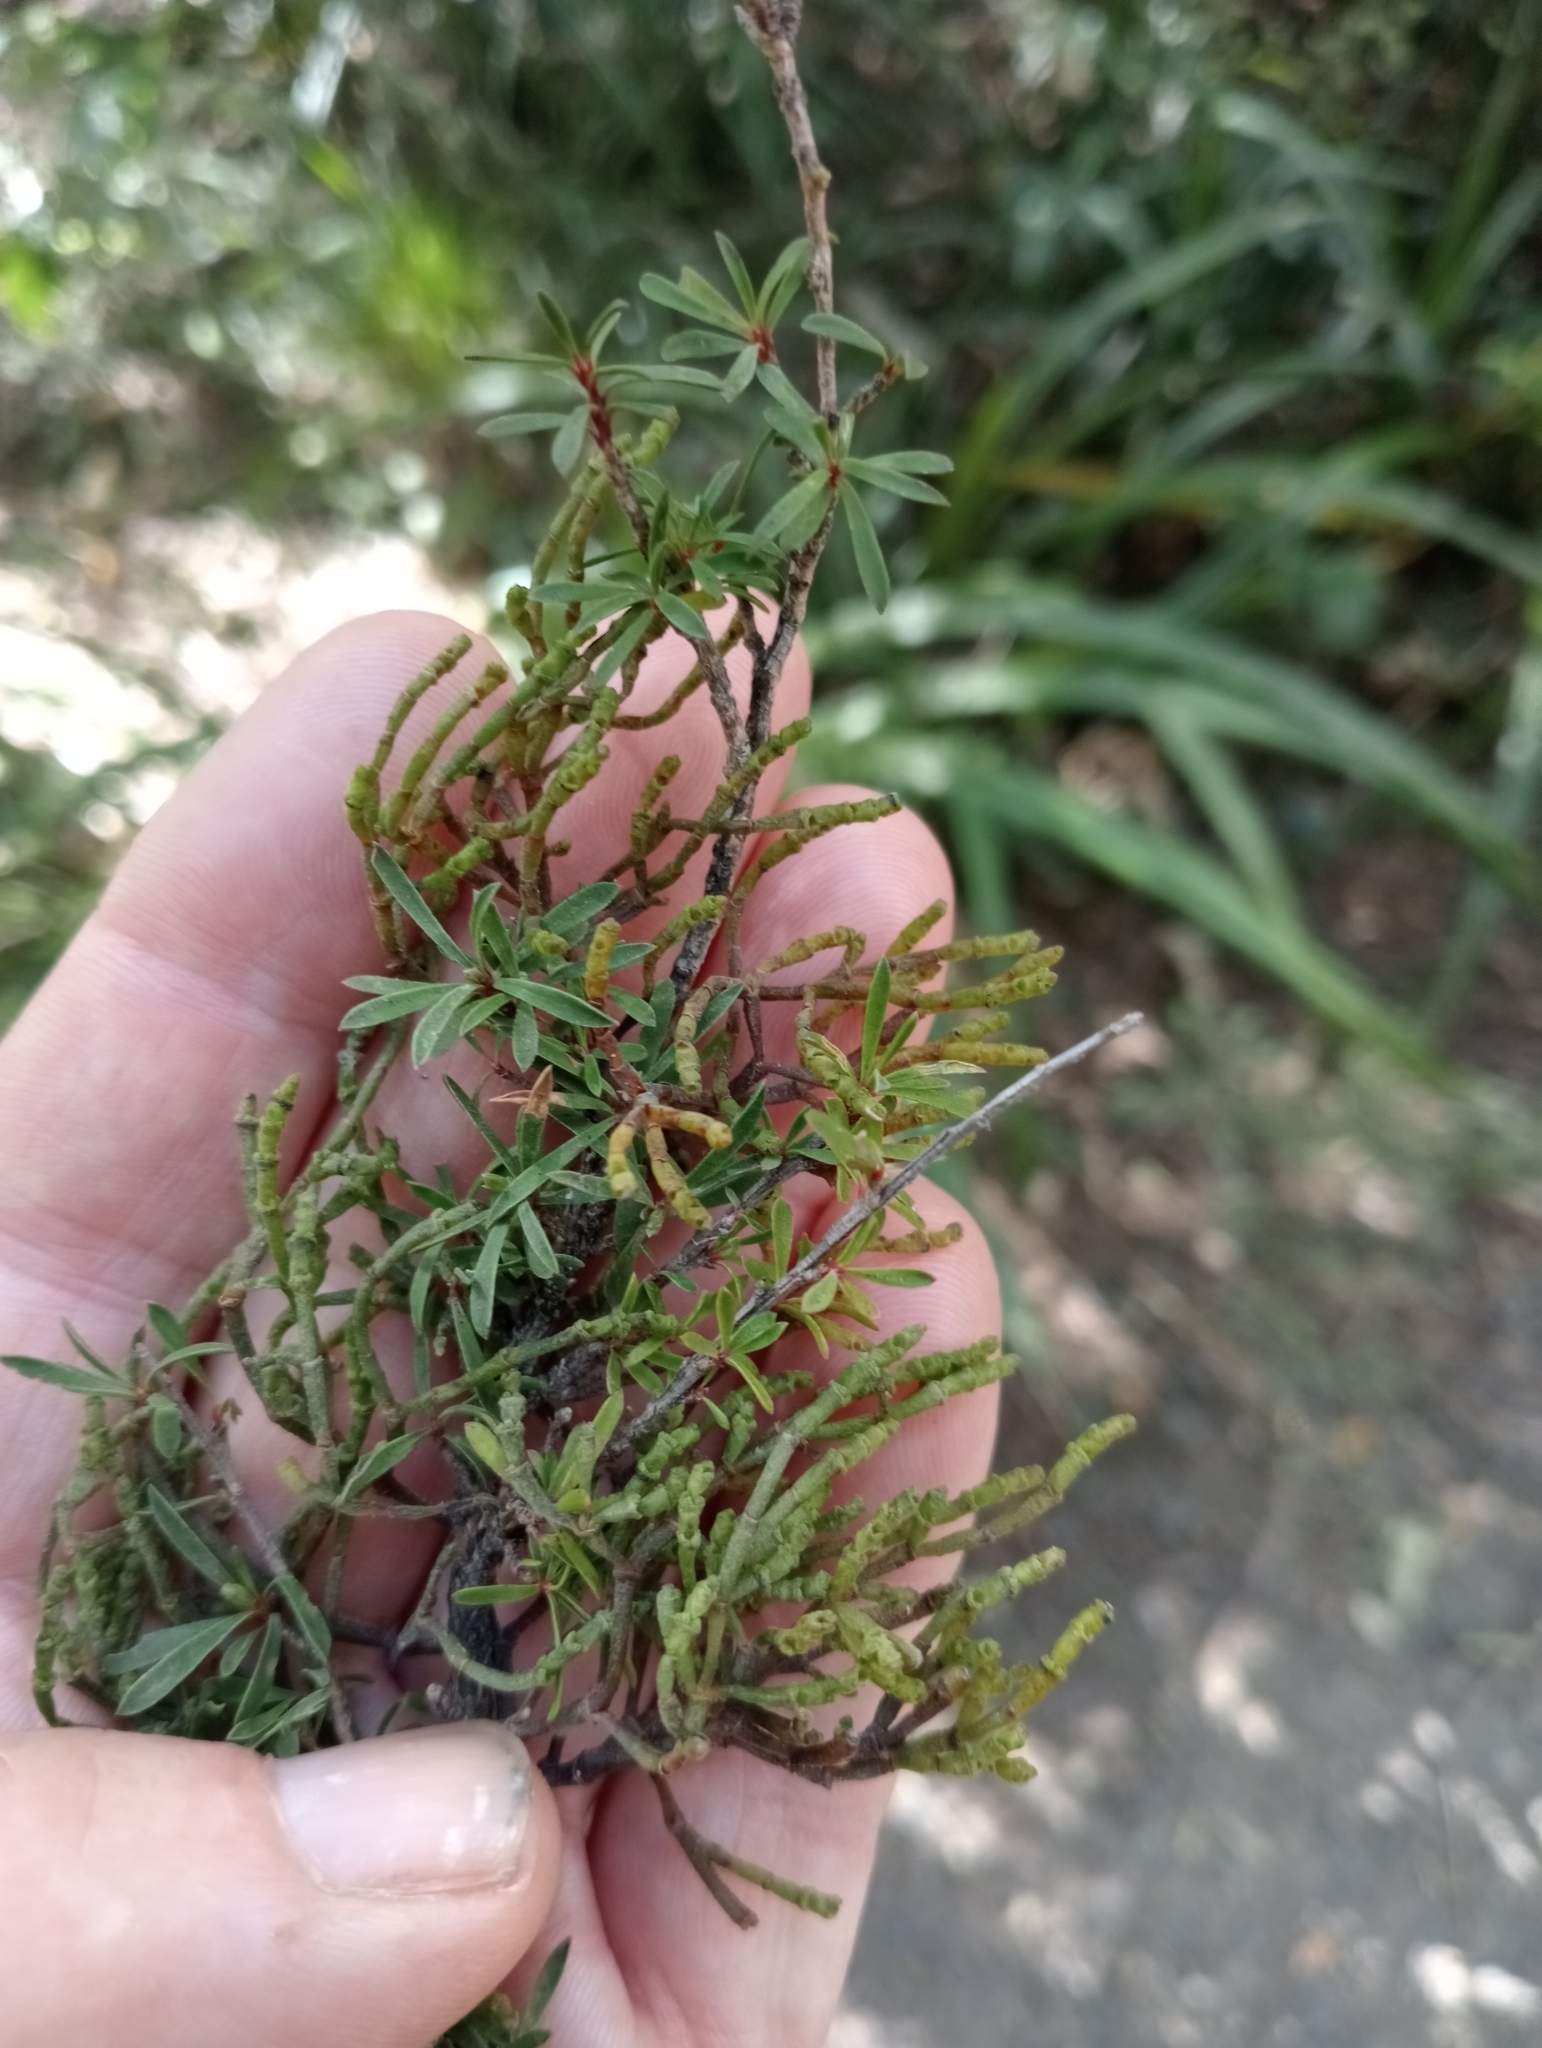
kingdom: Plantae
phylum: Tracheophyta
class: Magnoliopsida
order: Santalales
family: Viscaceae
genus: Korthalsella
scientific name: Korthalsella salicornioides
